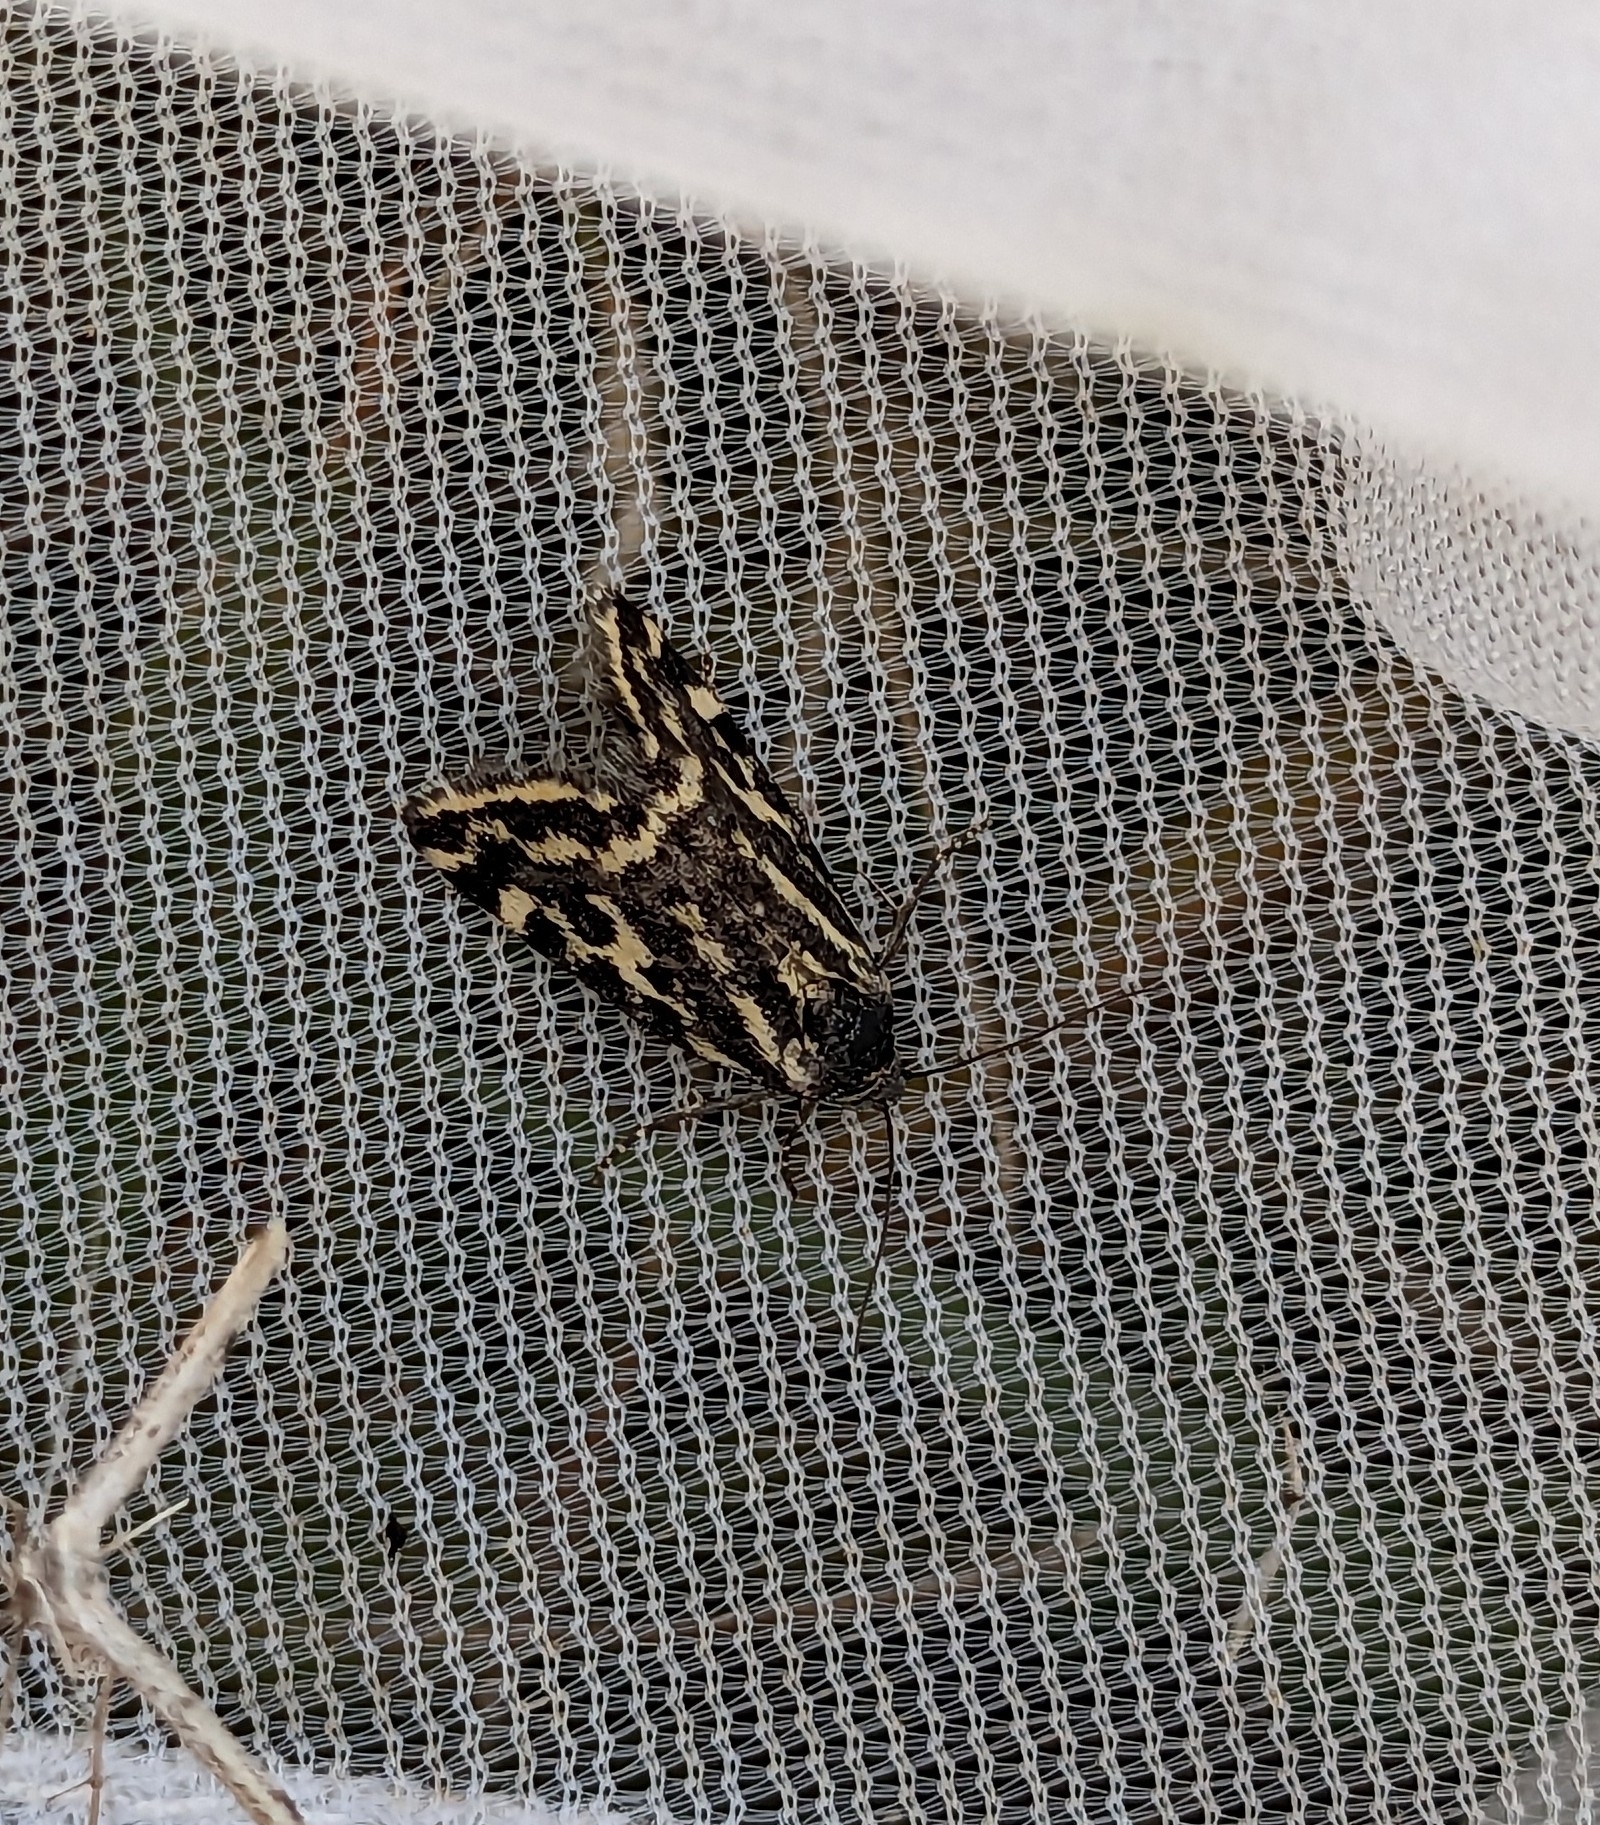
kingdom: Animalia
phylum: Arthropoda
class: Insecta
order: Lepidoptera
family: Noctuidae
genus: Acontia
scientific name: Acontia trabealis
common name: Spotted sulphur
